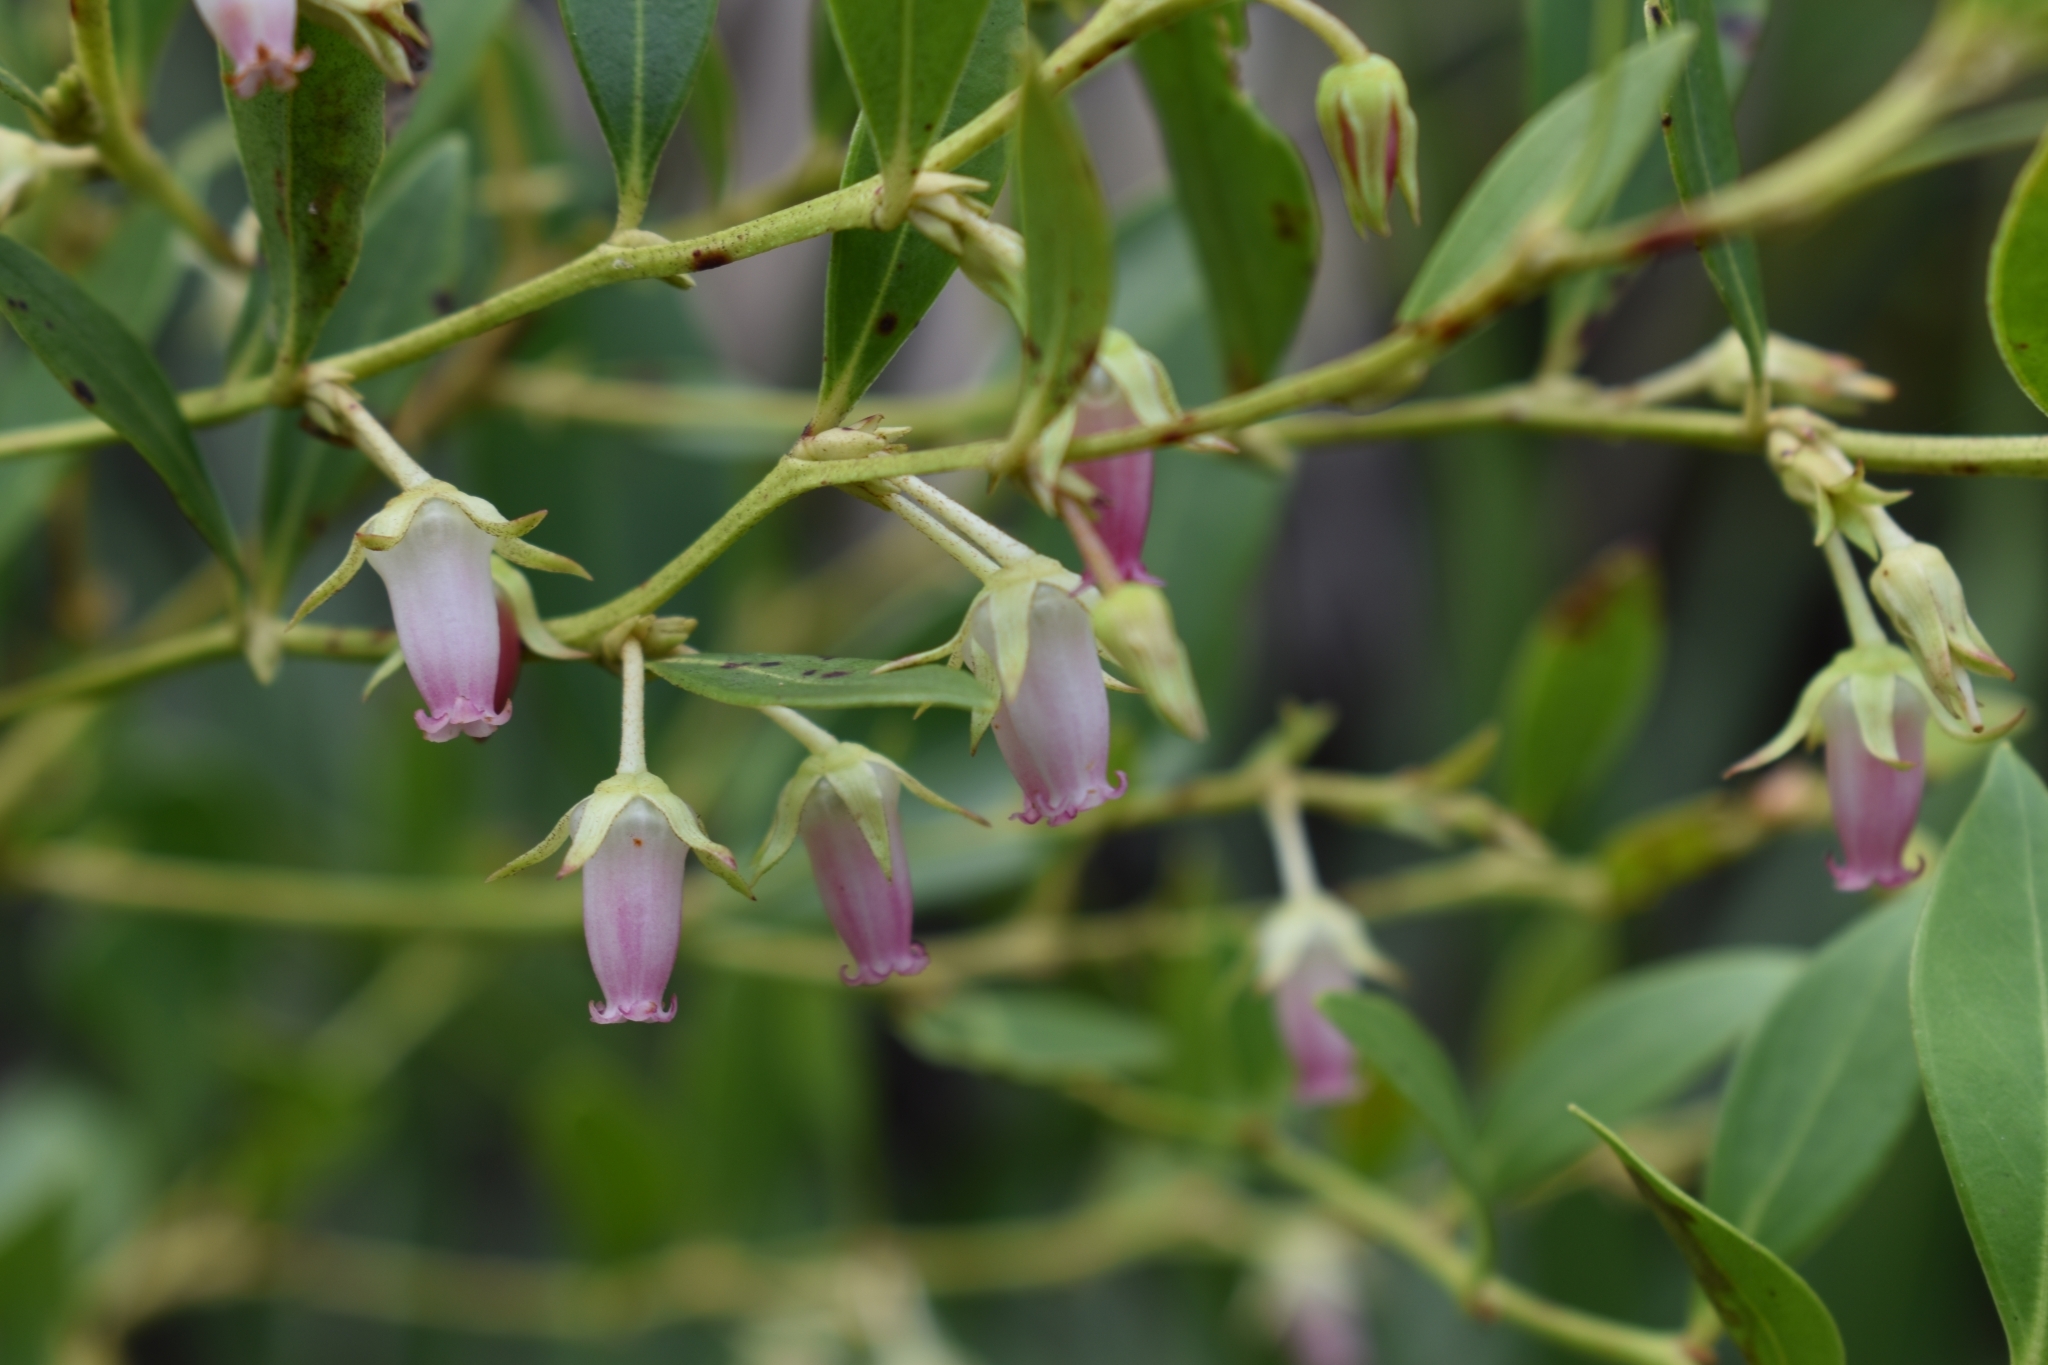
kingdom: Plantae
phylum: Tracheophyta
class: Magnoliopsida
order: Ericales
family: Ericaceae
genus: Lyonia
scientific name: Lyonia lucida
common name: Fetterbush
